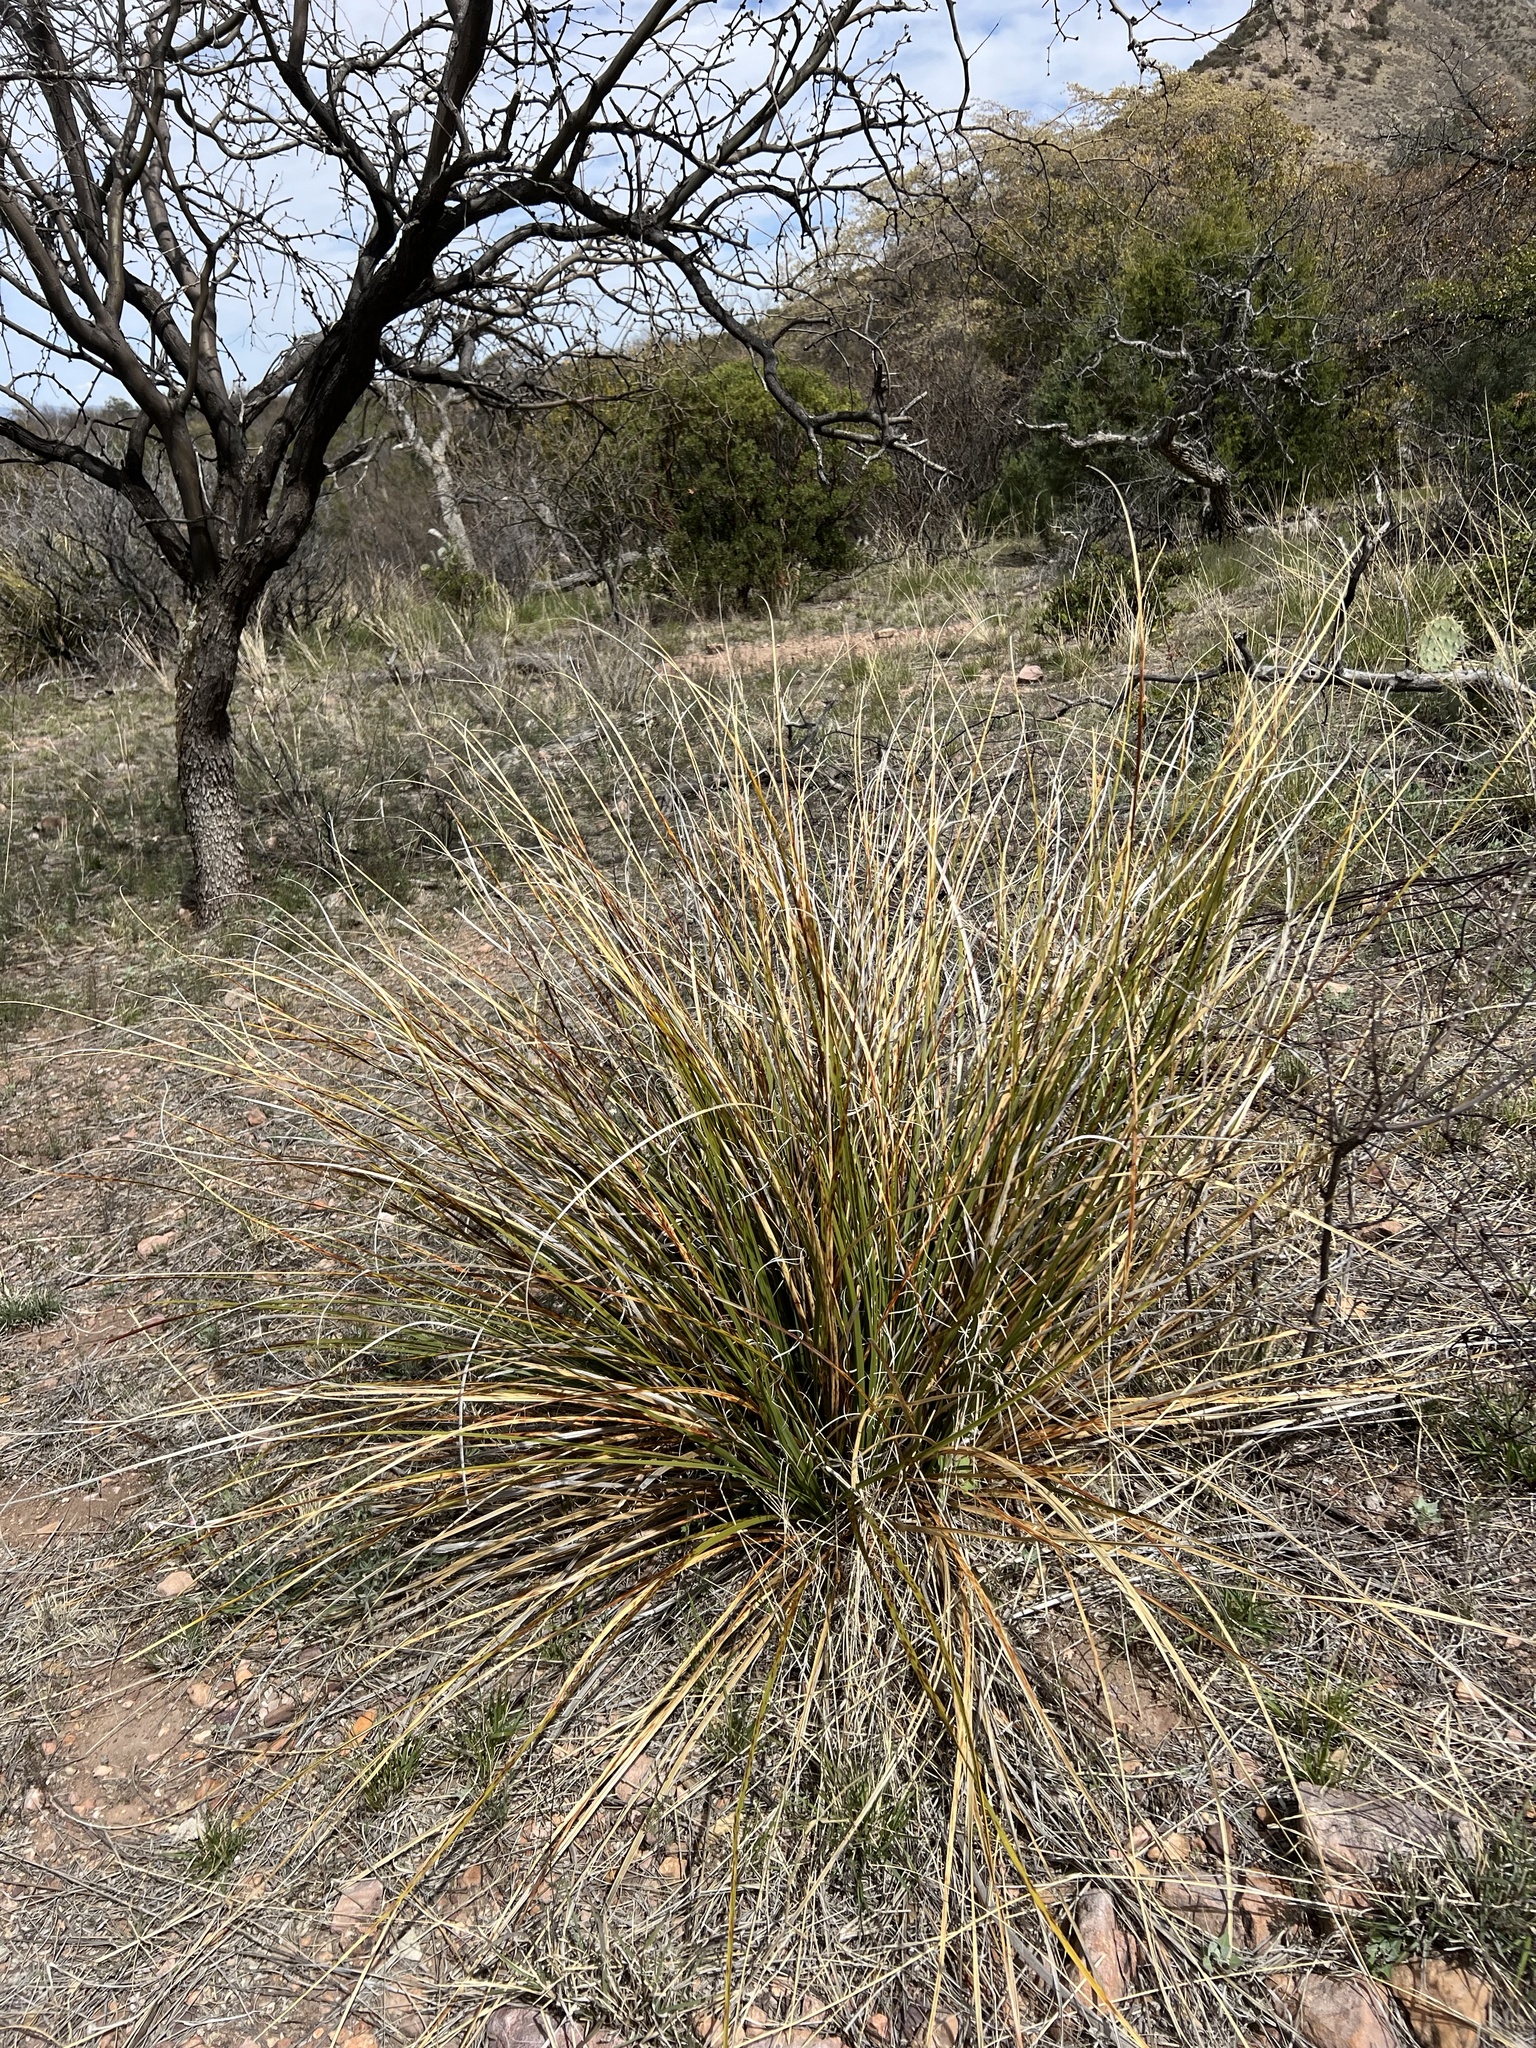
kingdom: Plantae
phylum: Tracheophyta
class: Liliopsida
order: Asparagales
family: Asparagaceae
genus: Nolina
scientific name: Nolina microcarpa
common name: Bear-grass
